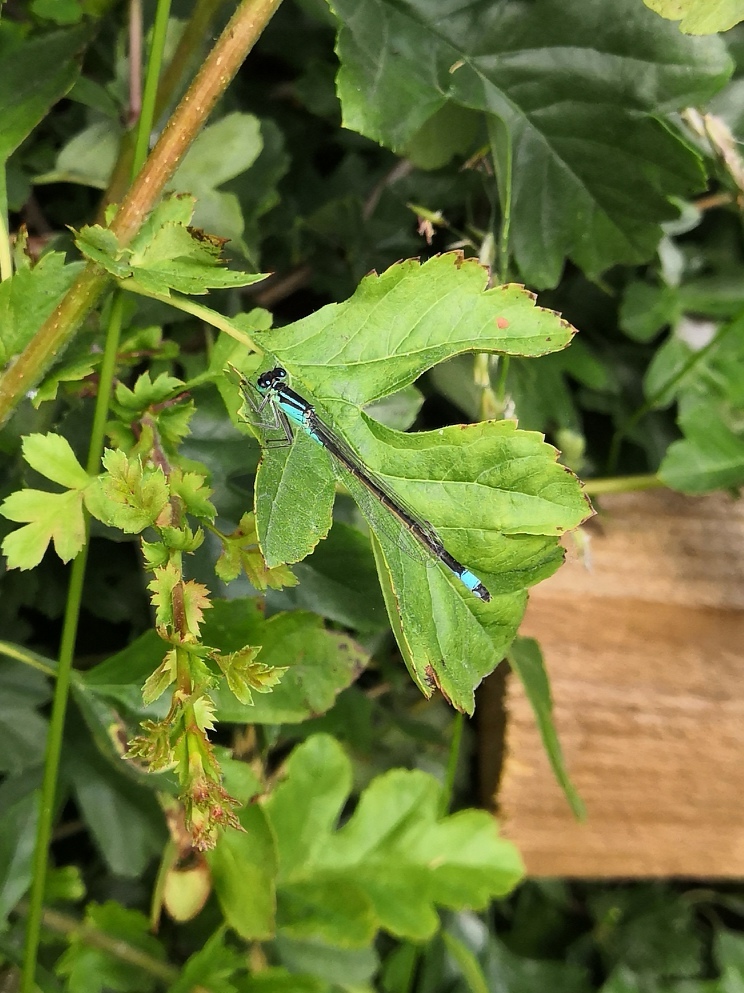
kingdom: Animalia
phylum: Arthropoda
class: Insecta
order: Odonata
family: Coenagrionidae
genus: Ischnura
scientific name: Ischnura elegans
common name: Blue-tailed damselfly
